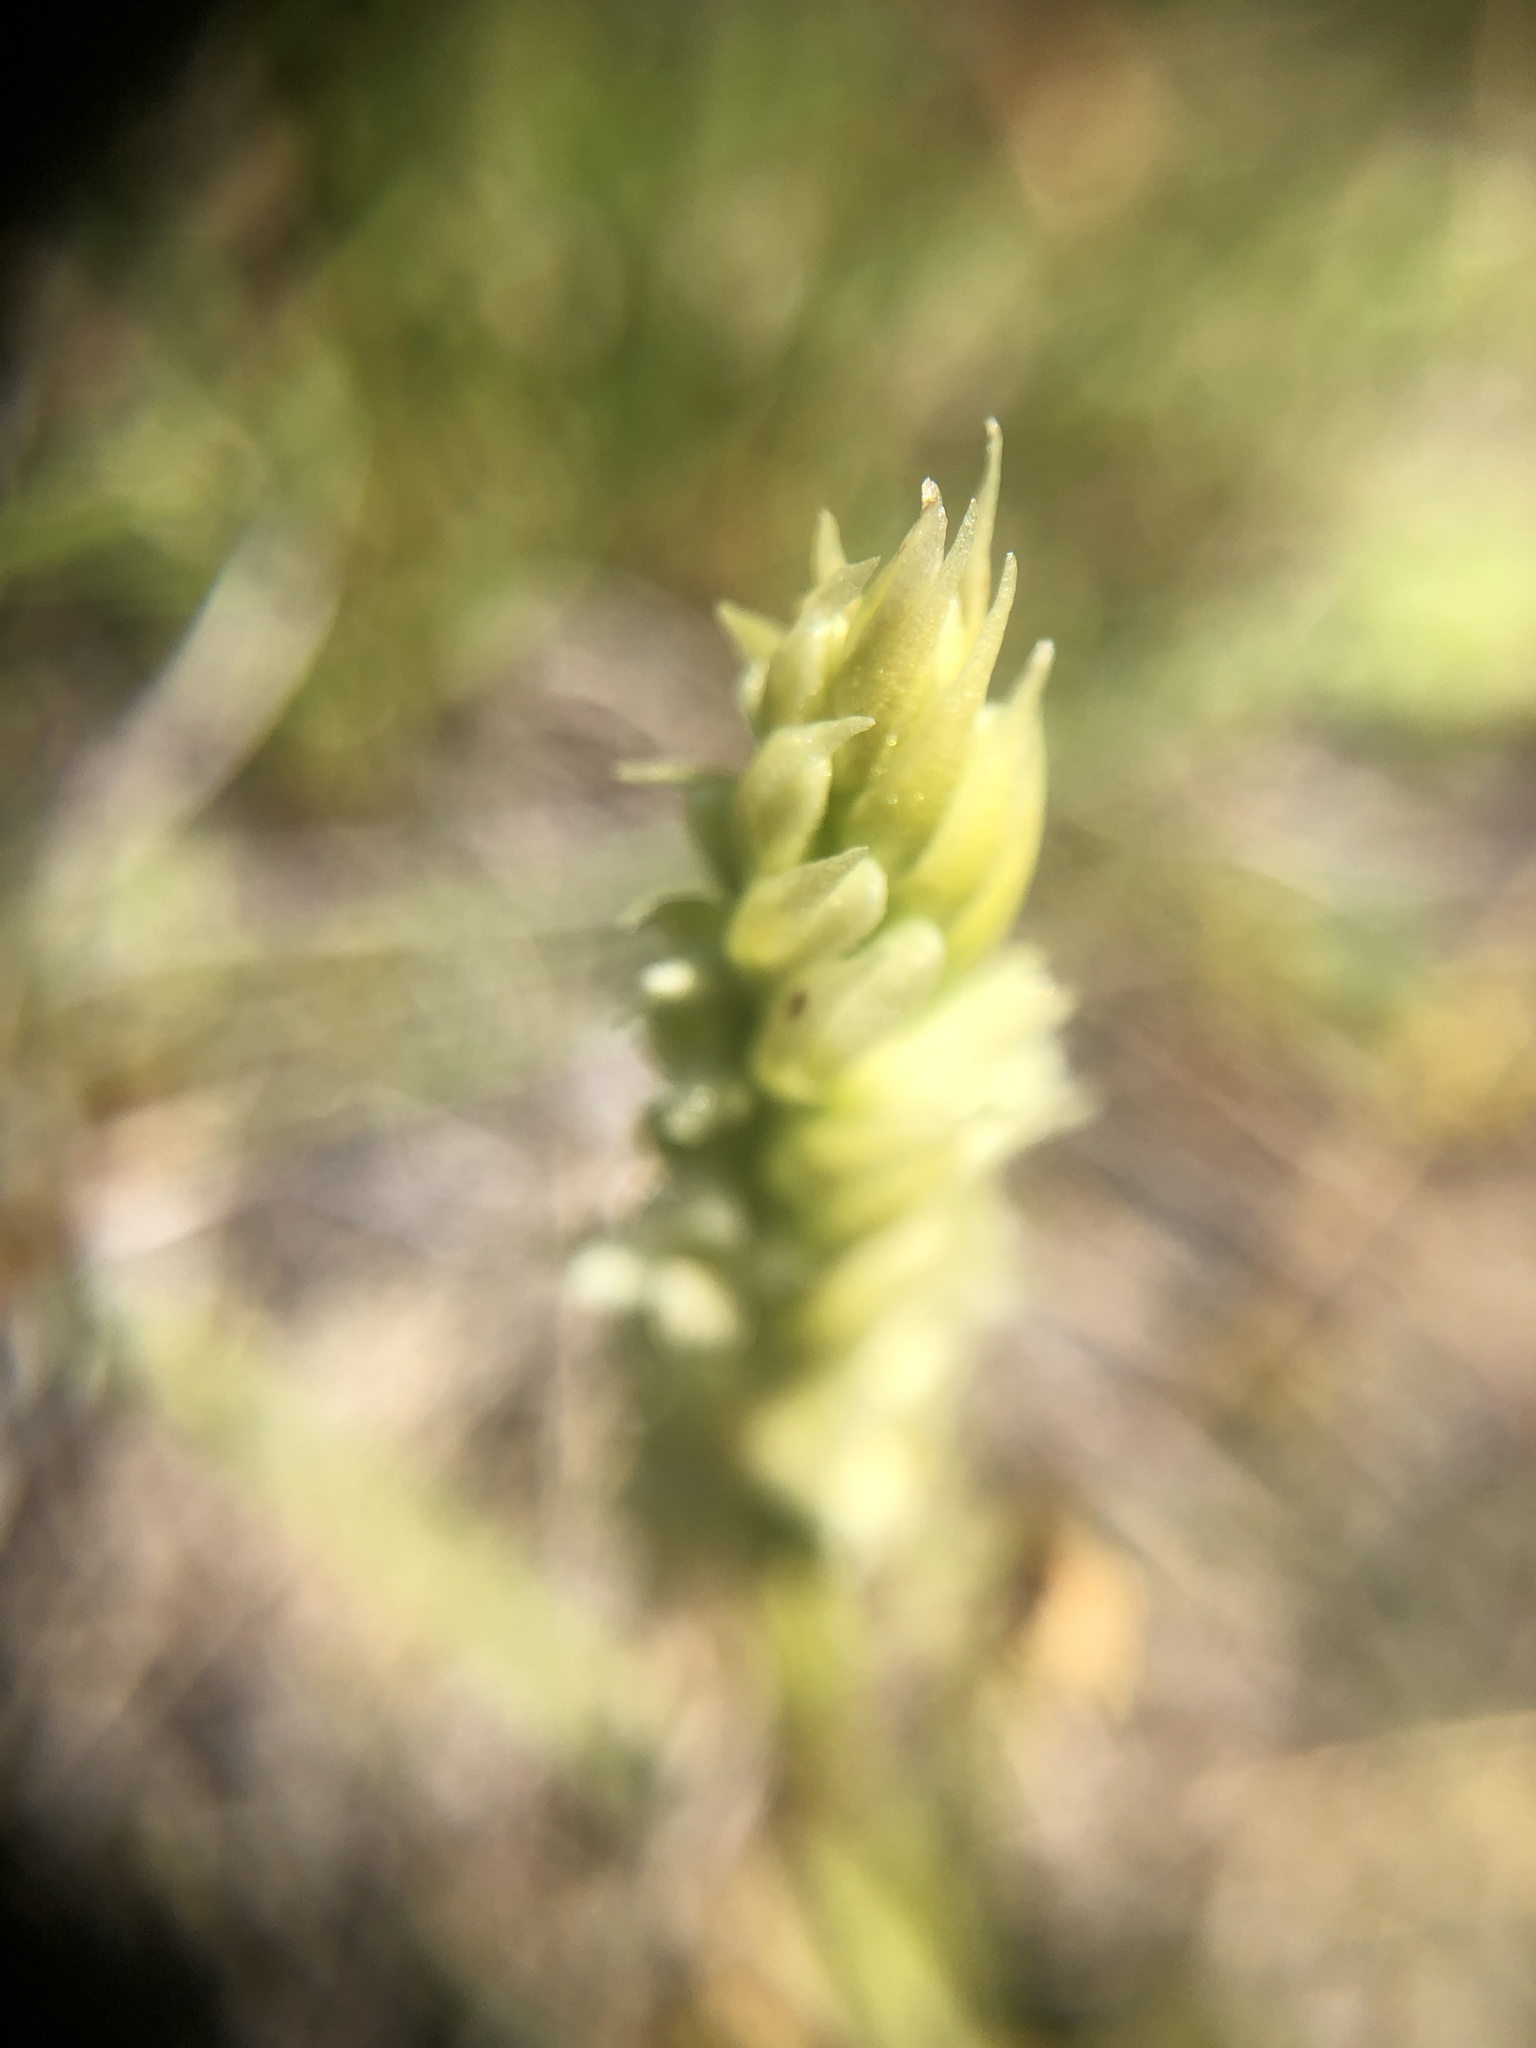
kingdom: Plantae
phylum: Tracheophyta
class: Liliopsida
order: Asparagales
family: Orchidaceae
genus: Spiranthes
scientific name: Spiranthes stellata
